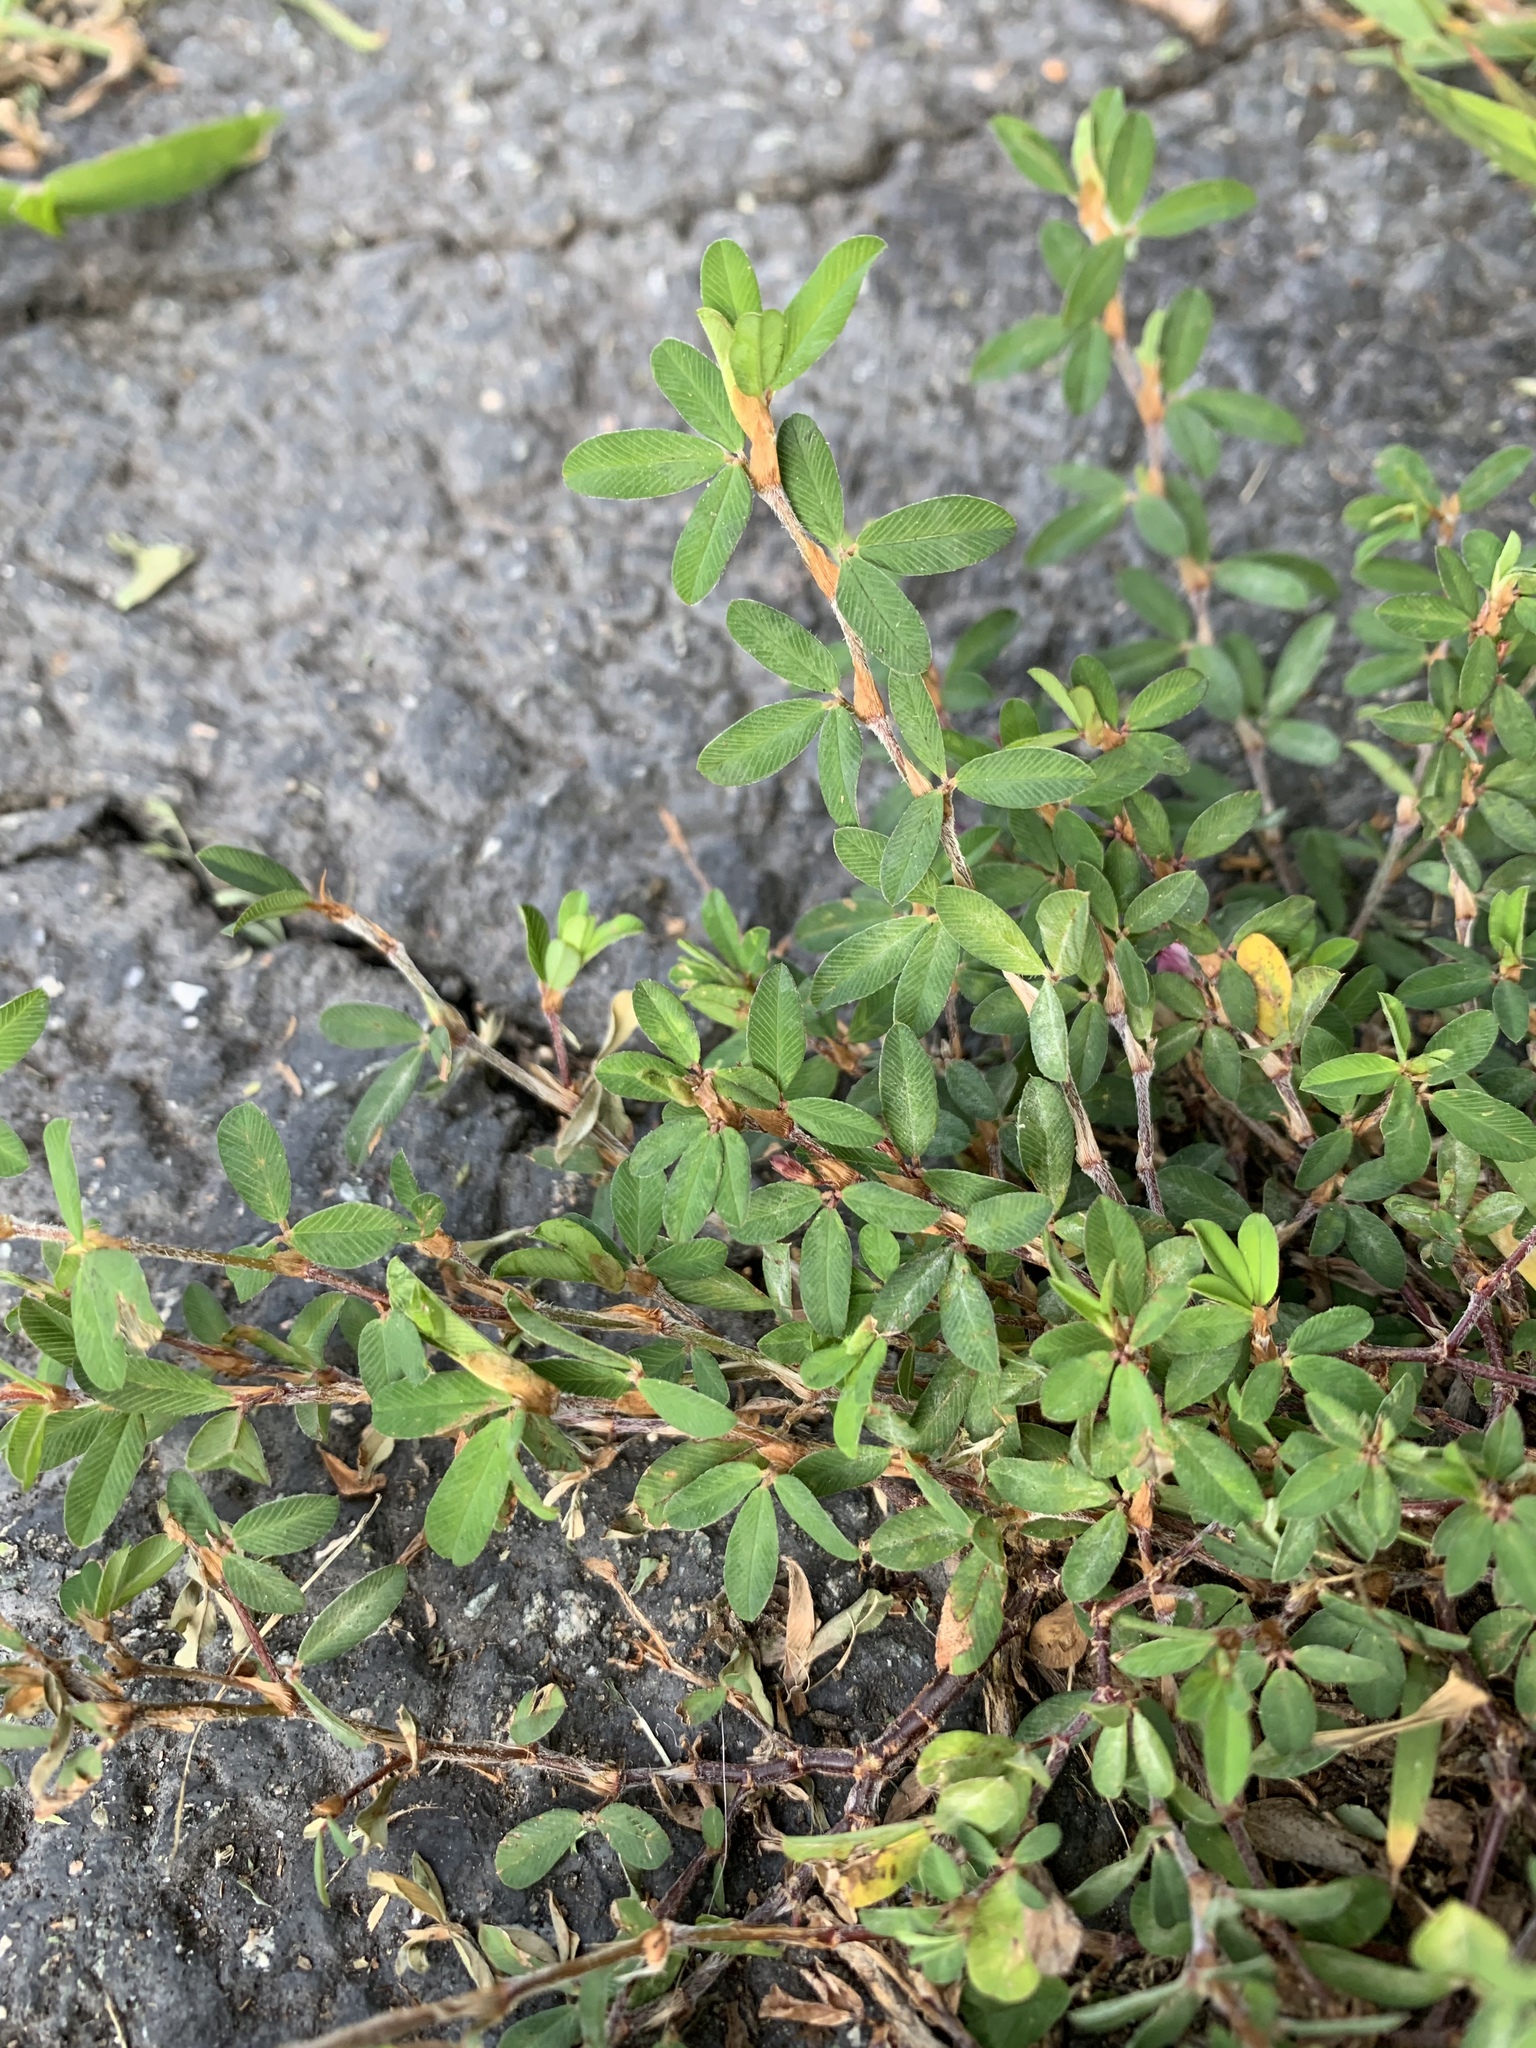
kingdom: Plantae
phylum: Tracheophyta
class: Magnoliopsida
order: Fabales
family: Fabaceae
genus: Kummerowia
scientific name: Kummerowia striata
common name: Japanese clover
